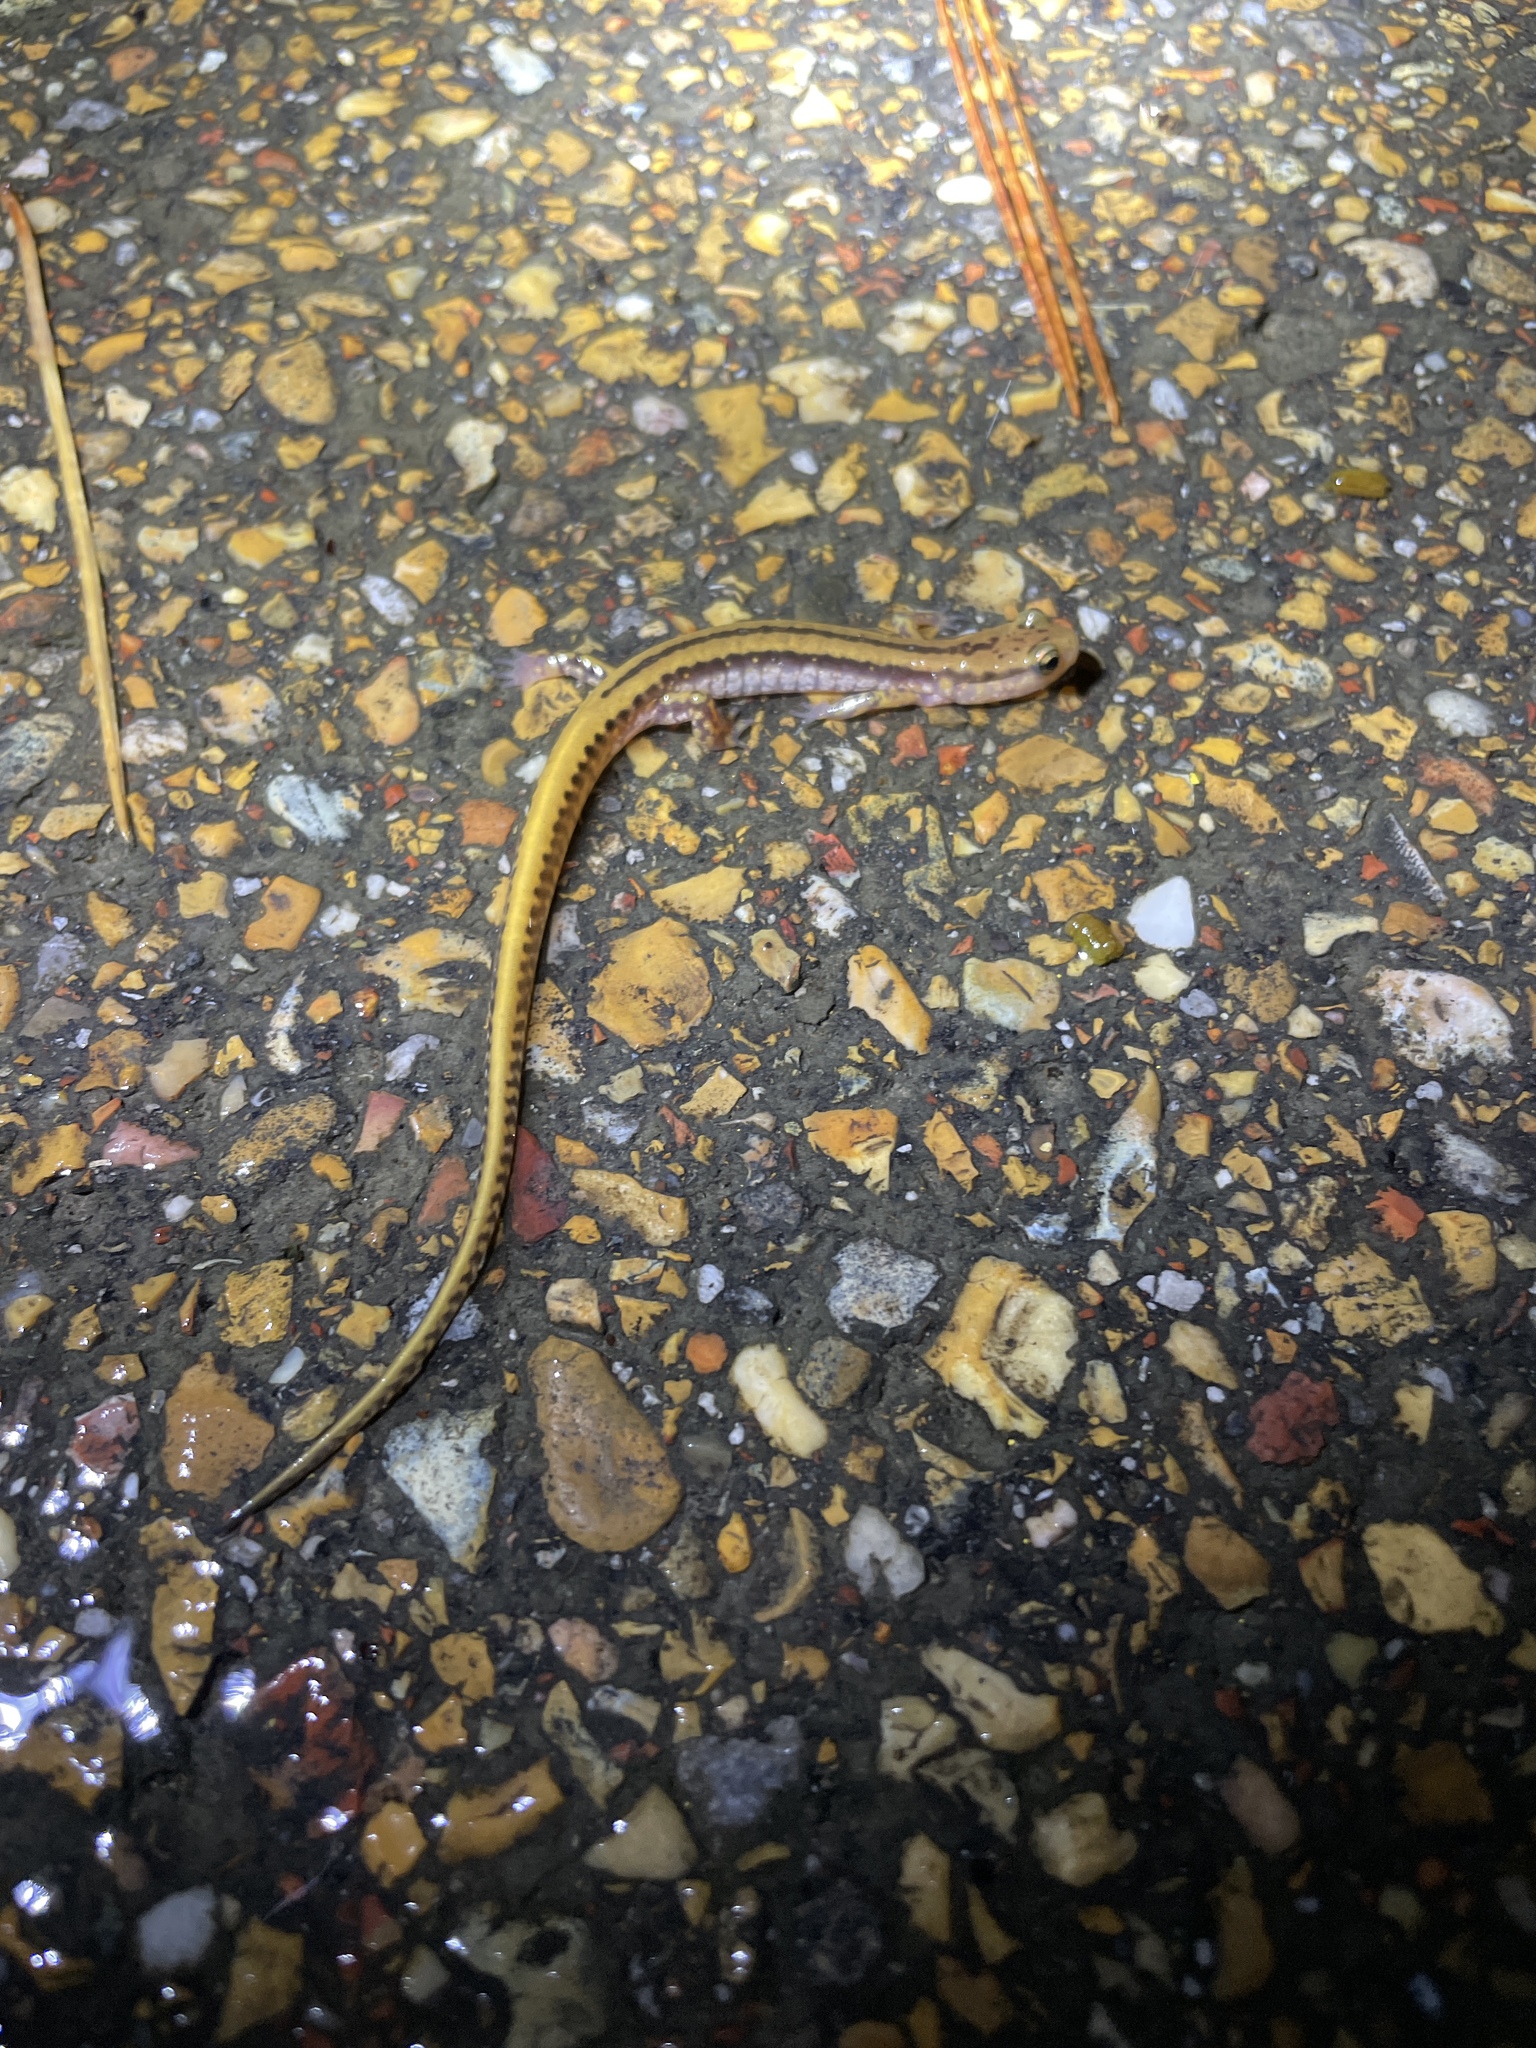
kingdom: Animalia
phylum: Chordata
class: Amphibia
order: Caudata
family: Plethodontidae
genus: Eurycea
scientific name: Eurycea guttolineata
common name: Three-lined salamander
